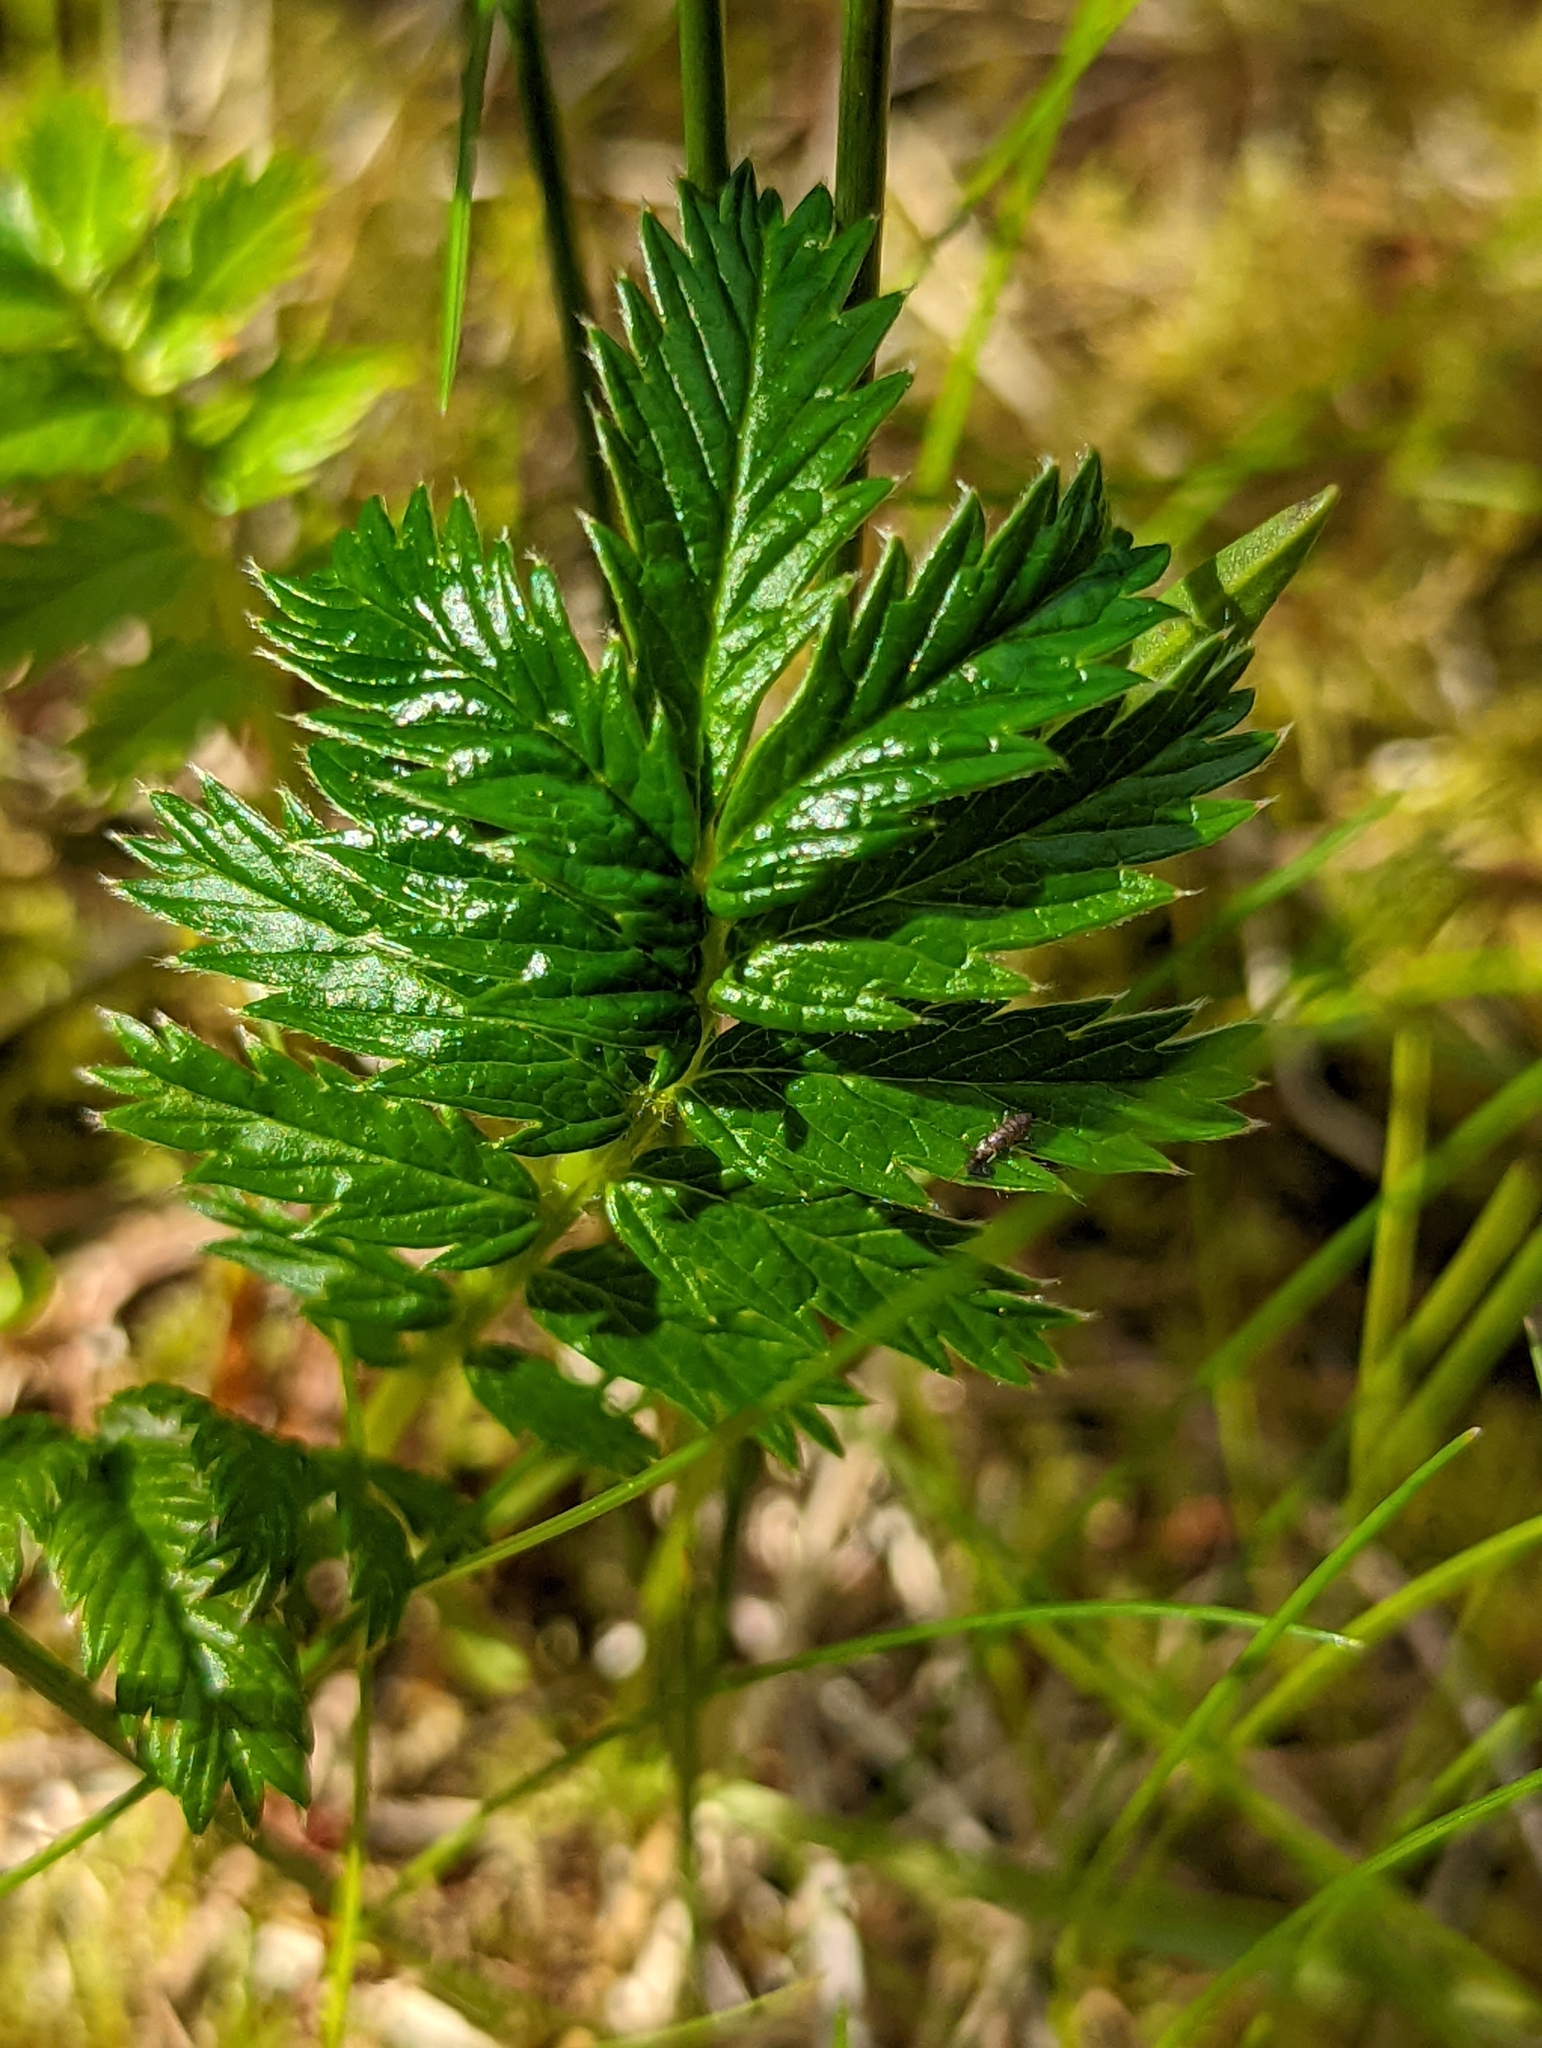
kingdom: Plantae
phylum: Tracheophyta
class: Magnoliopsida
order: Rosales
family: Rosaceae
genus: Argentina
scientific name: Argentina anserina
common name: Common silverweed
